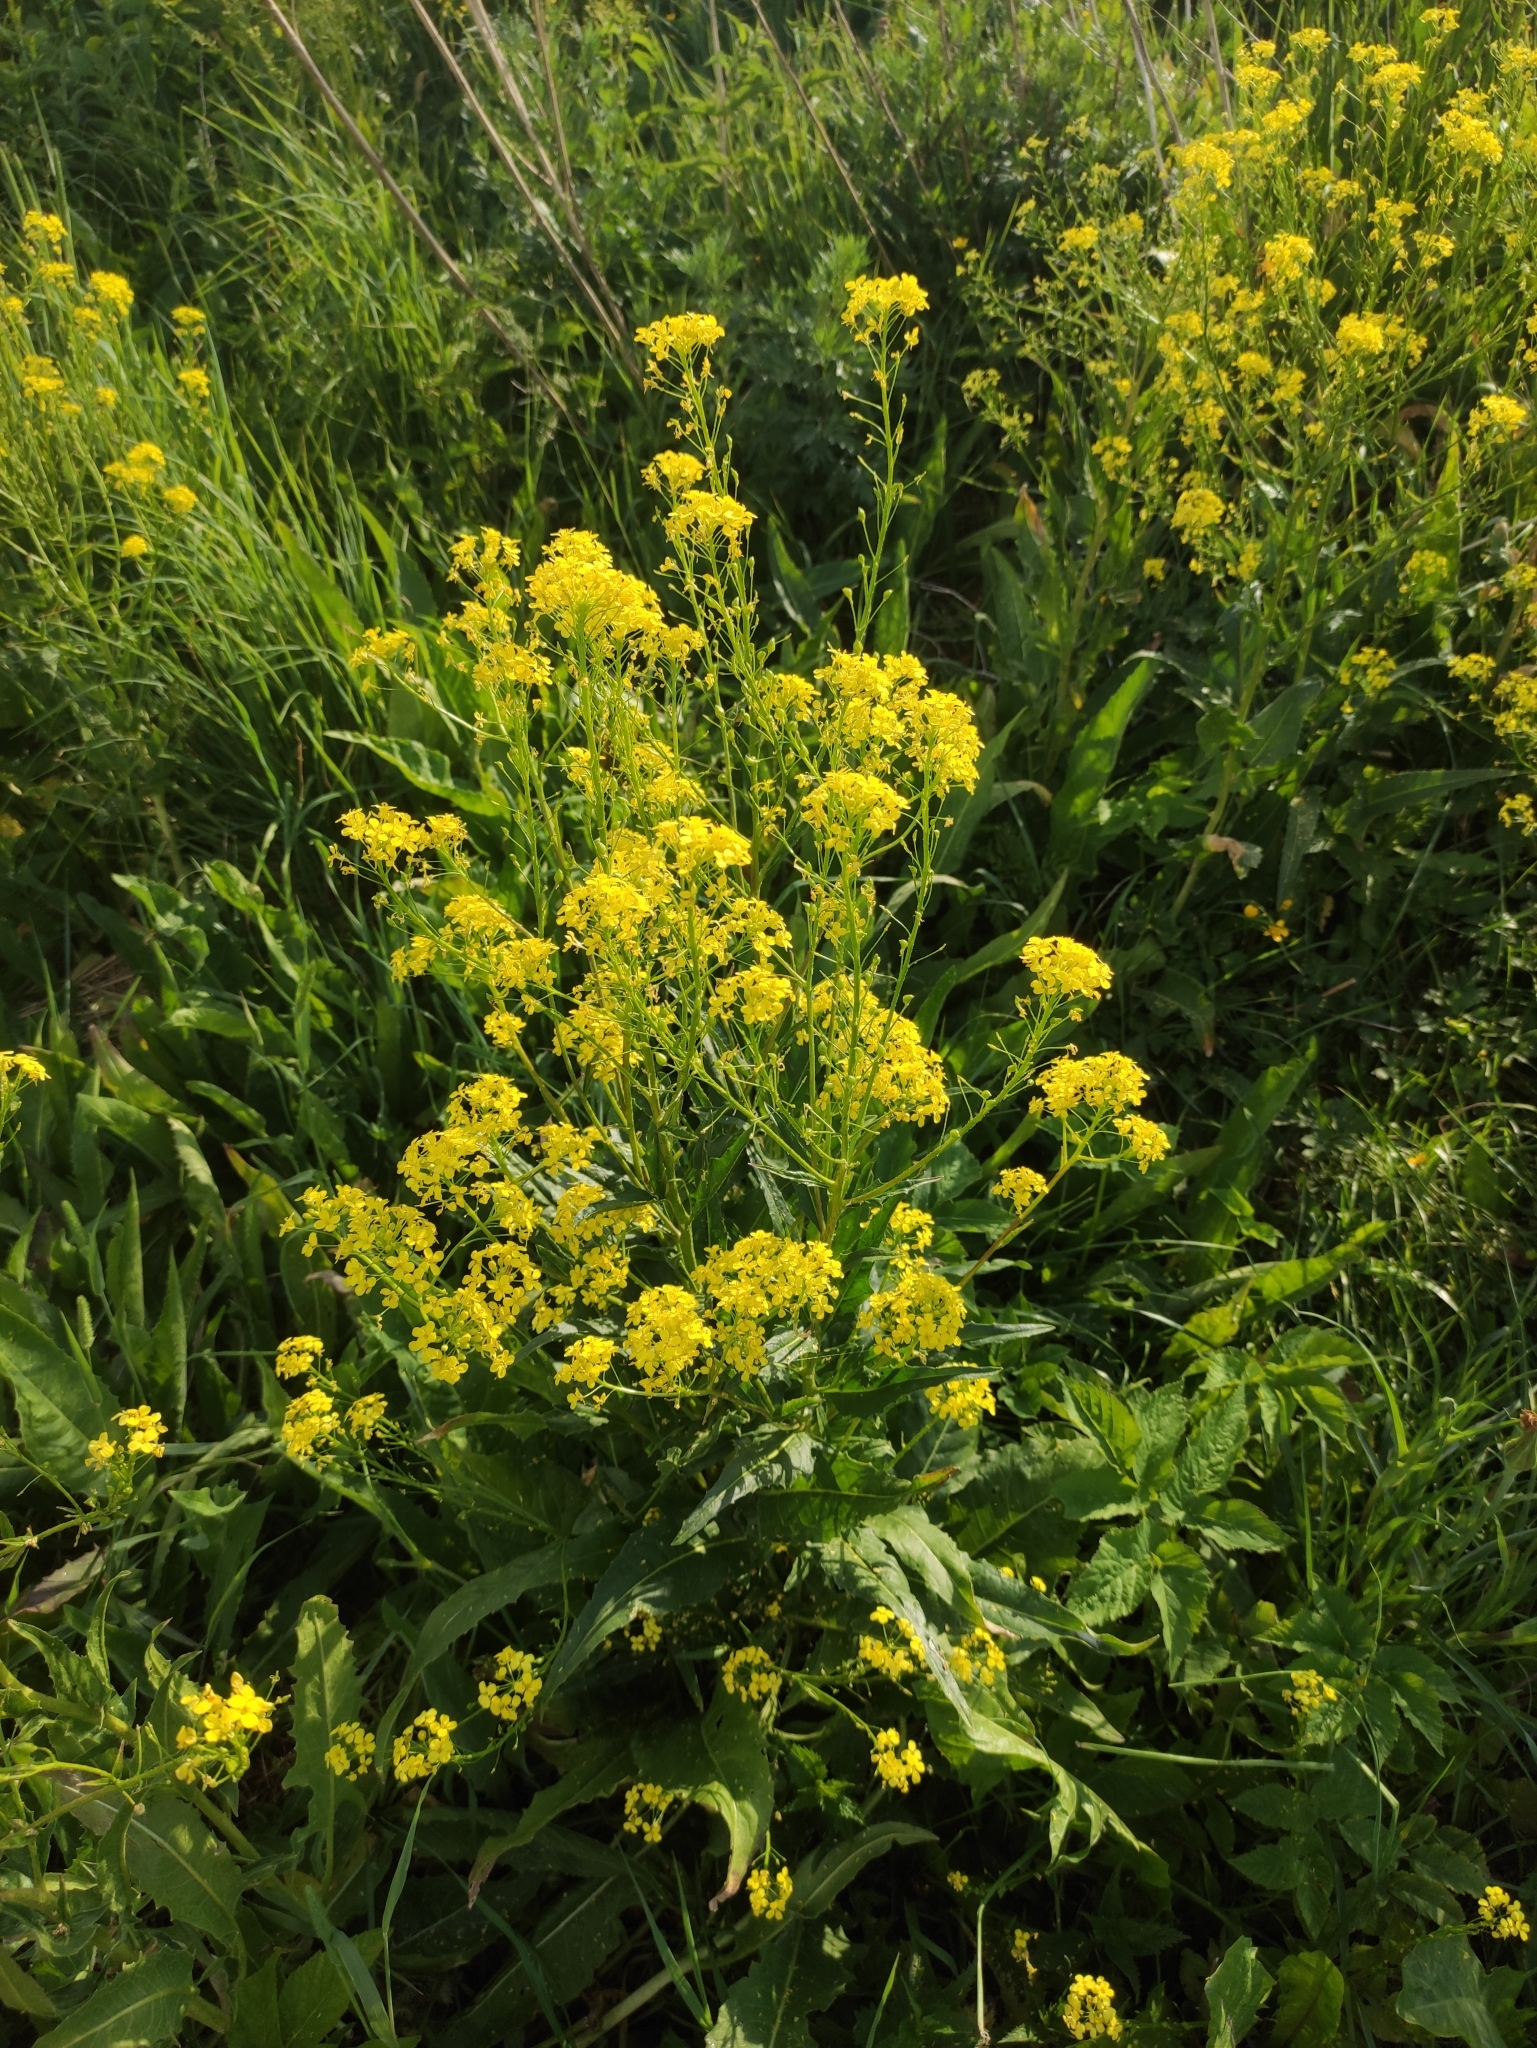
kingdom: Plantae
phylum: Tracheophyta
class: Magnoliopsida
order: Brassicales
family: Brassicaceae
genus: Bunias
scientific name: Bunias orientalis
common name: Warty-cabbage
